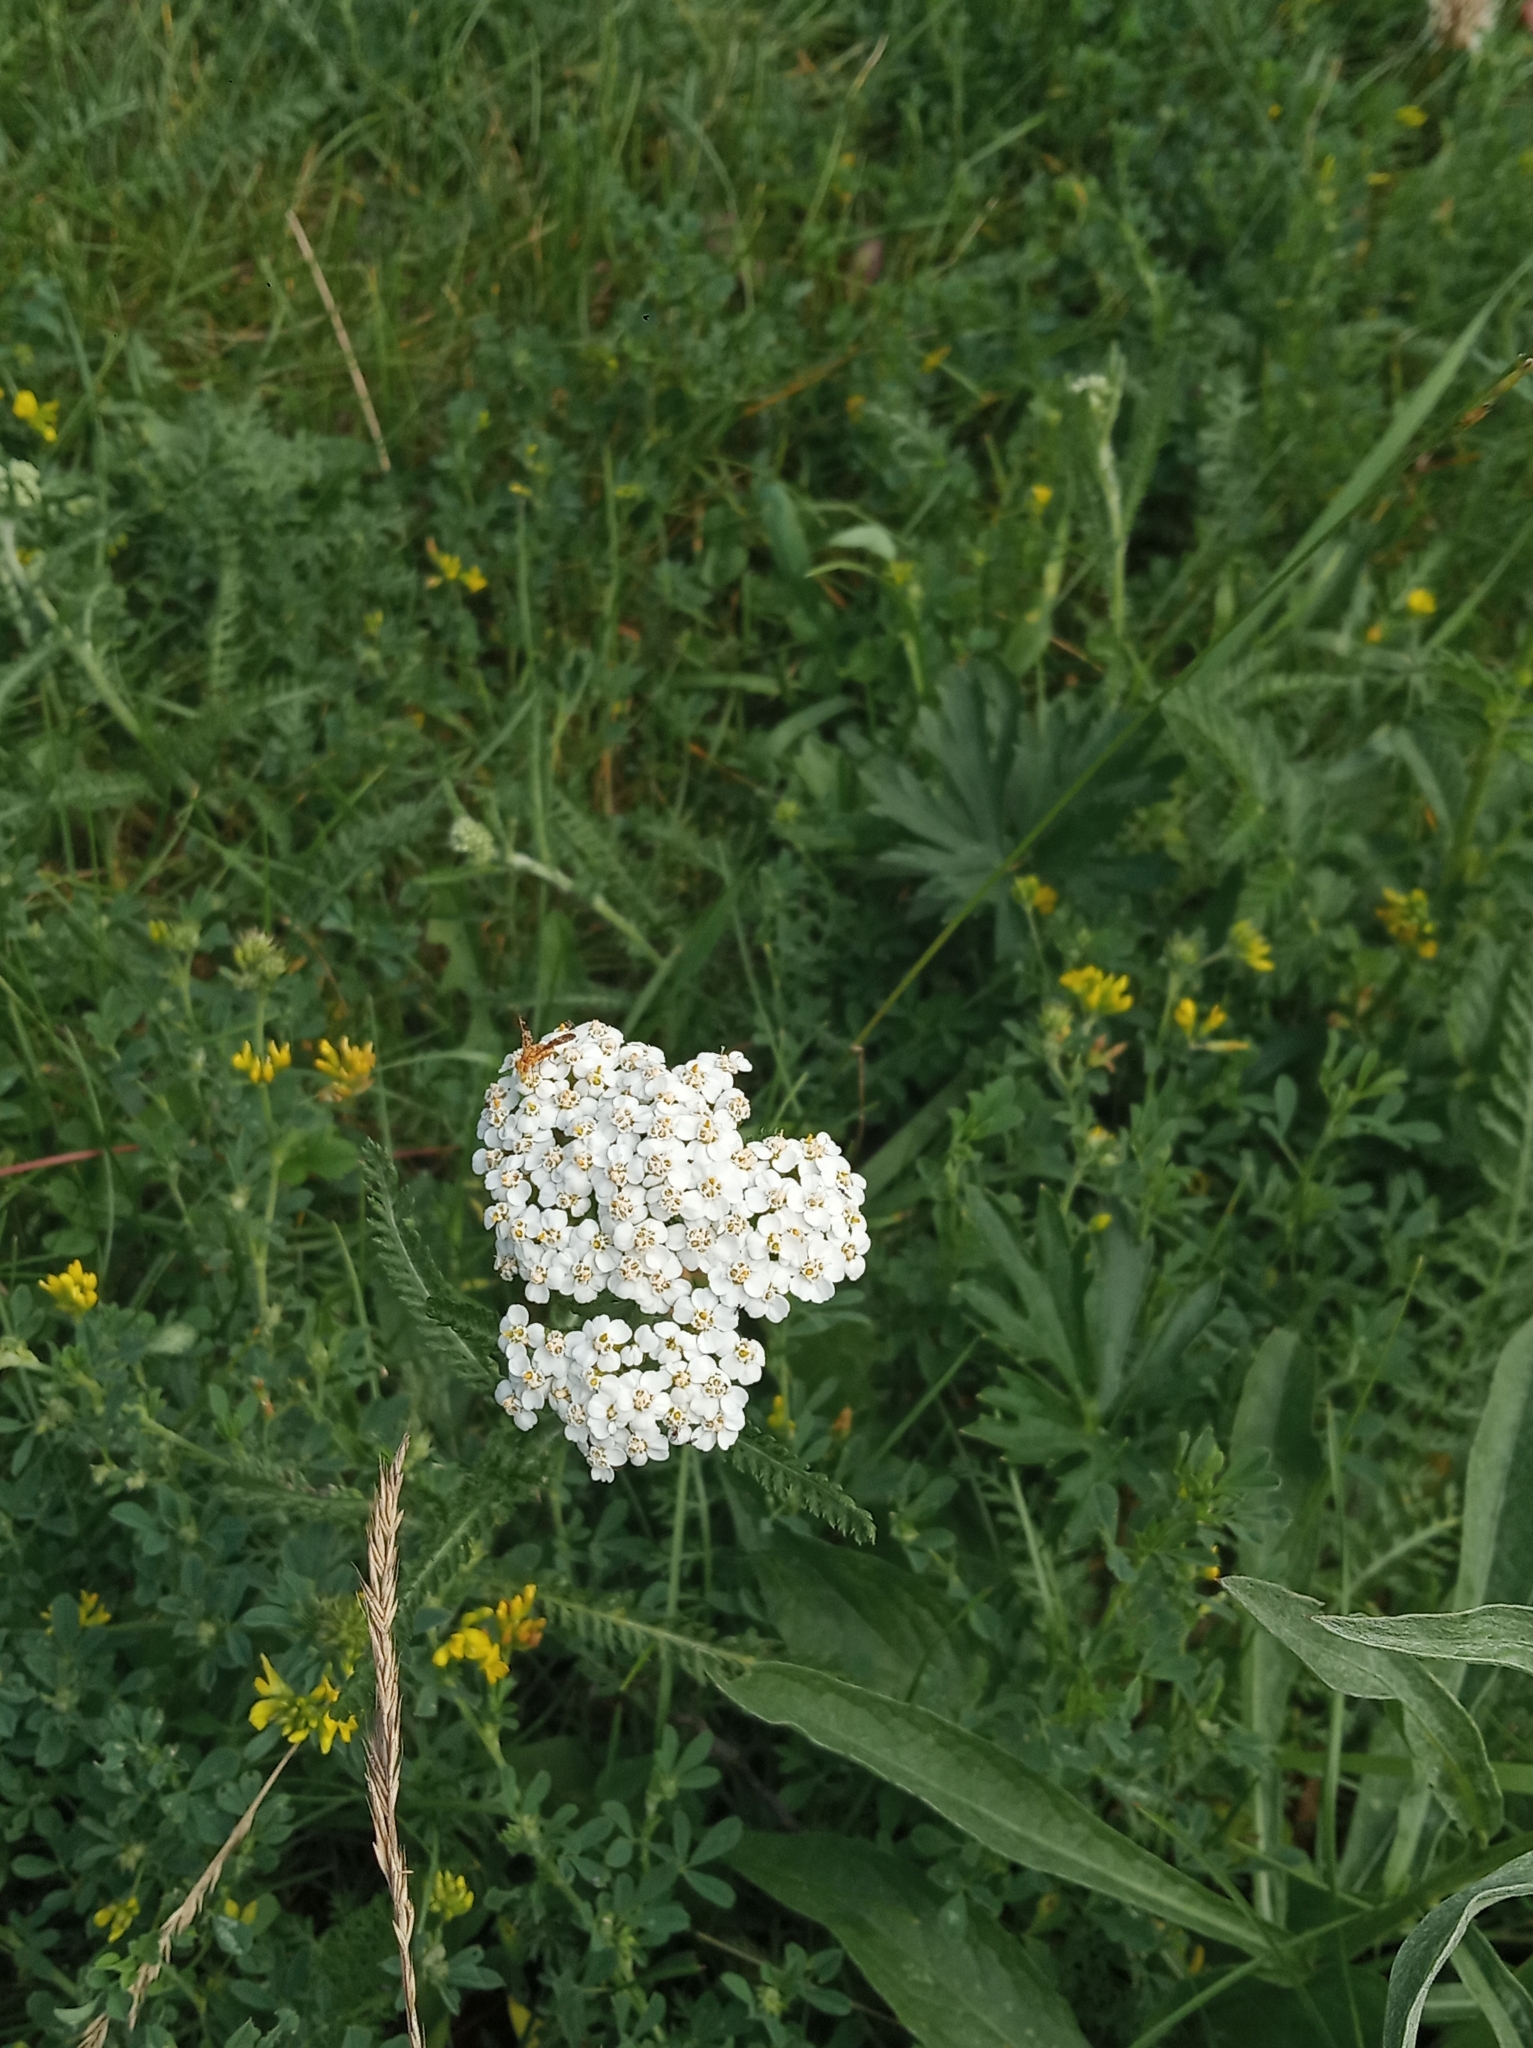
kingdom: Plantae
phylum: Tracheophyta
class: Magnoliopsida
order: Asterales
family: Asteraceae
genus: Achillea
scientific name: Achillea millefolium
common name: Yarrow
